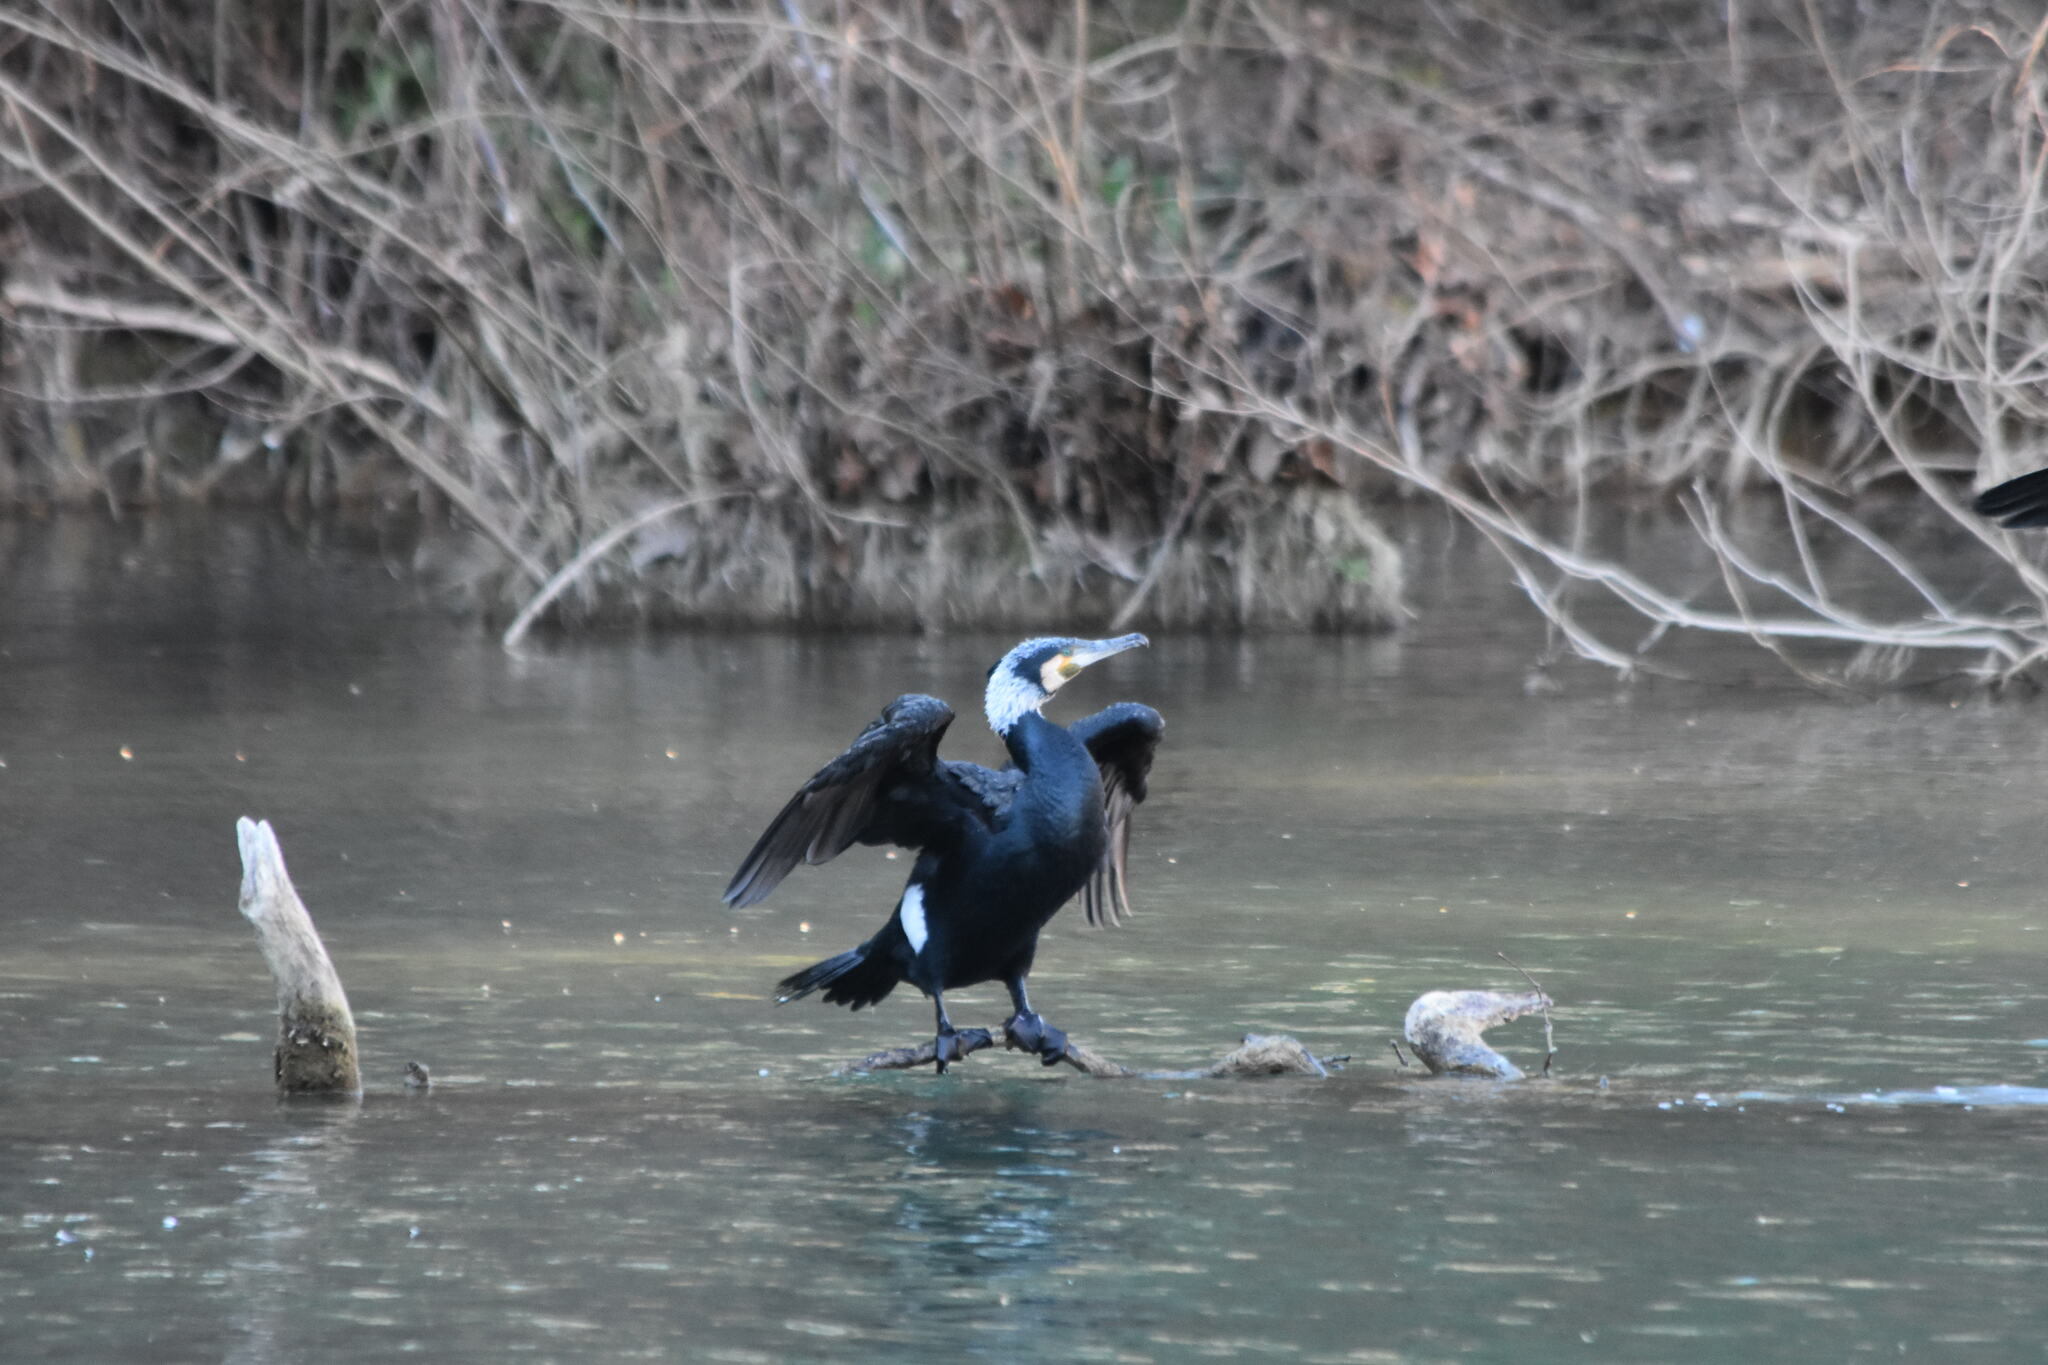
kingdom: Animalia
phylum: Chordata
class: Aves
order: Suliformes
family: Phalacrocoracidae
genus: Phalacrocorax
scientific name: Phalacrocorax carbo
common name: Great cormorant
